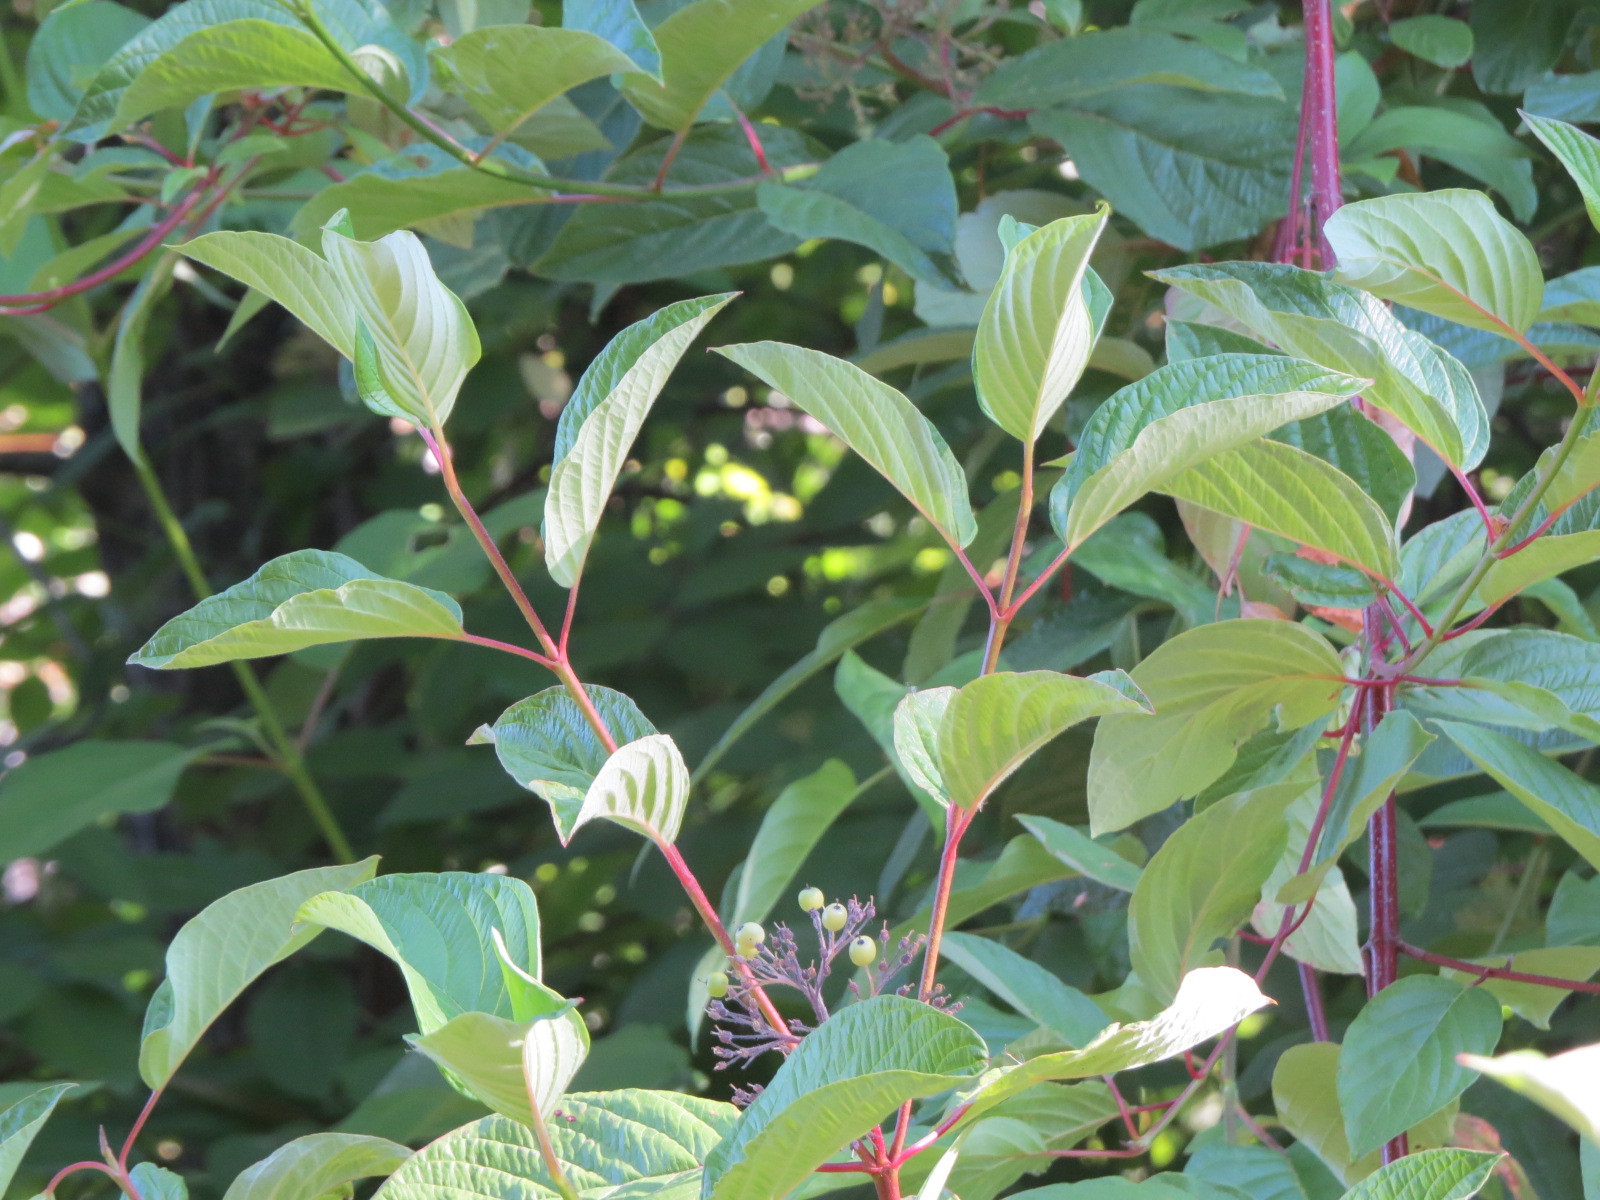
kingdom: Plantae
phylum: Tracheophyta
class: Magnoliopsida
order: Cornales
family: Cornaceae
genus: Cornus
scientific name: Cornus sericea
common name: Red-osier dogwood
